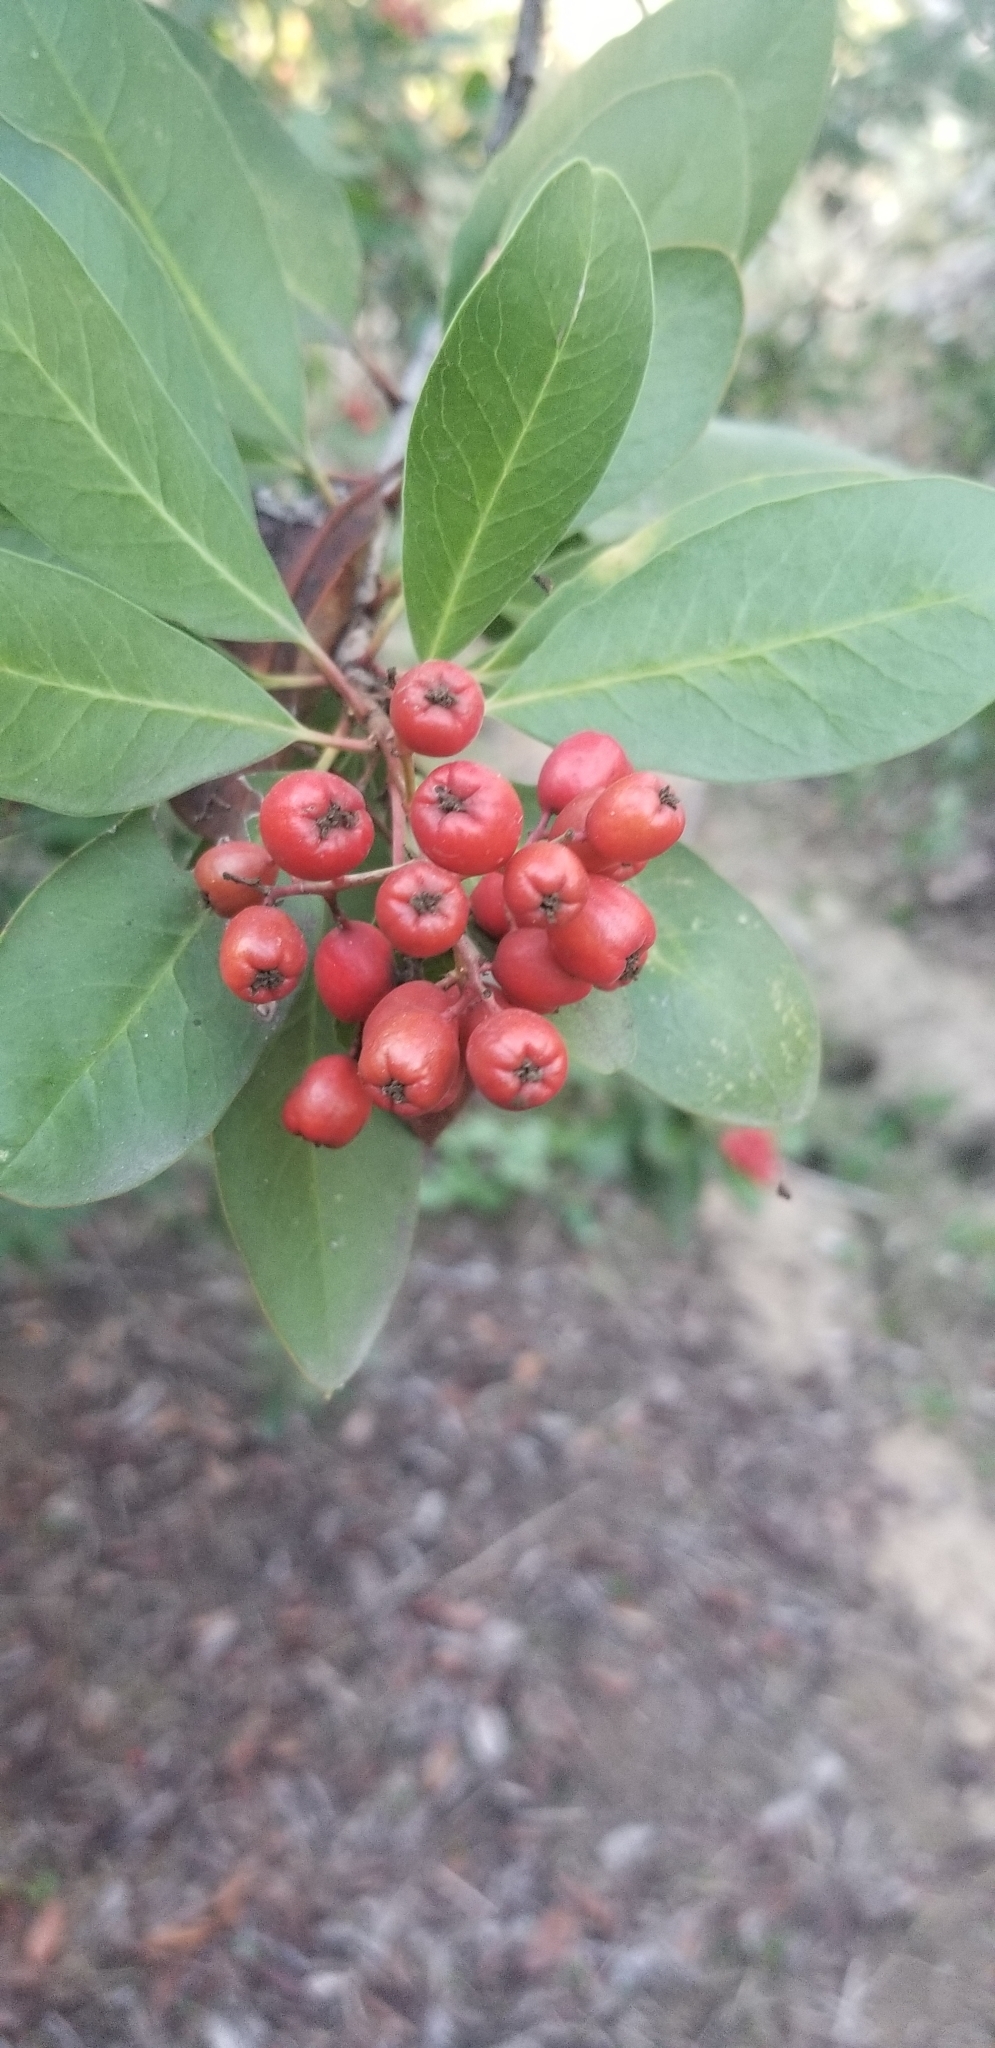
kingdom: Plantae
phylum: Tracheophyta
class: Magnoliopsida
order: Rosales
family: Rosaceae
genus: Heteromeles
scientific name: Heteromeles arbutifolia
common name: California-holly
